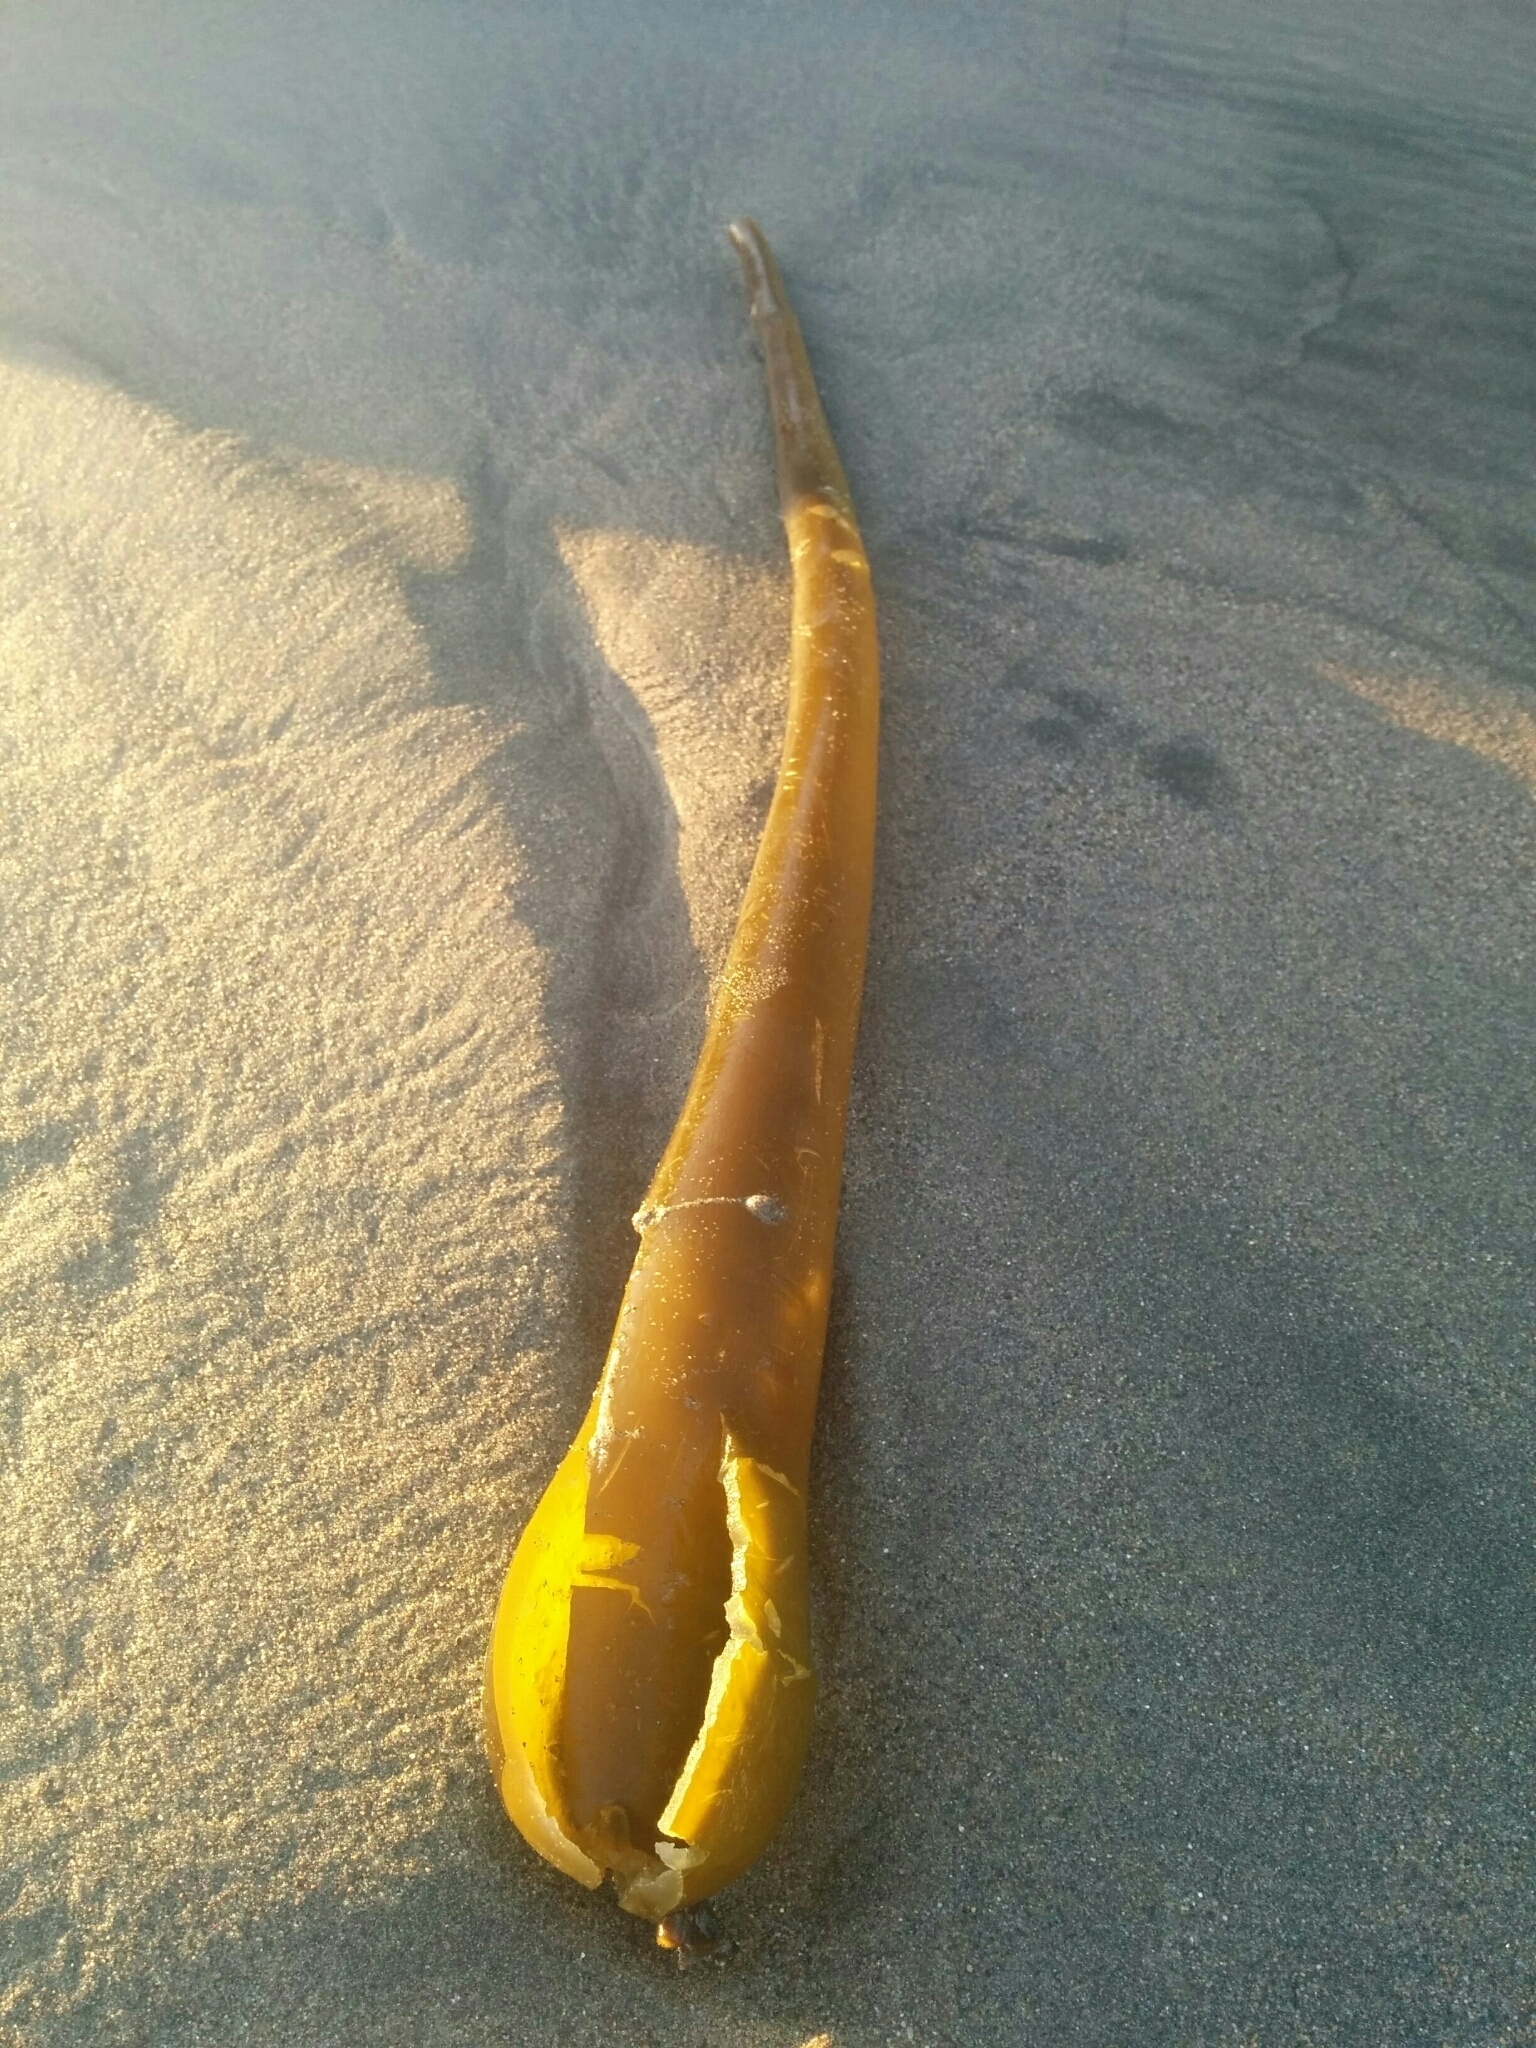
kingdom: Chromista
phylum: Ochrophyta
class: Phaeophyceae
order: Laminariales
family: Laminariaceae
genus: Nereocystis
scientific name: Nereocystis luetkeana
